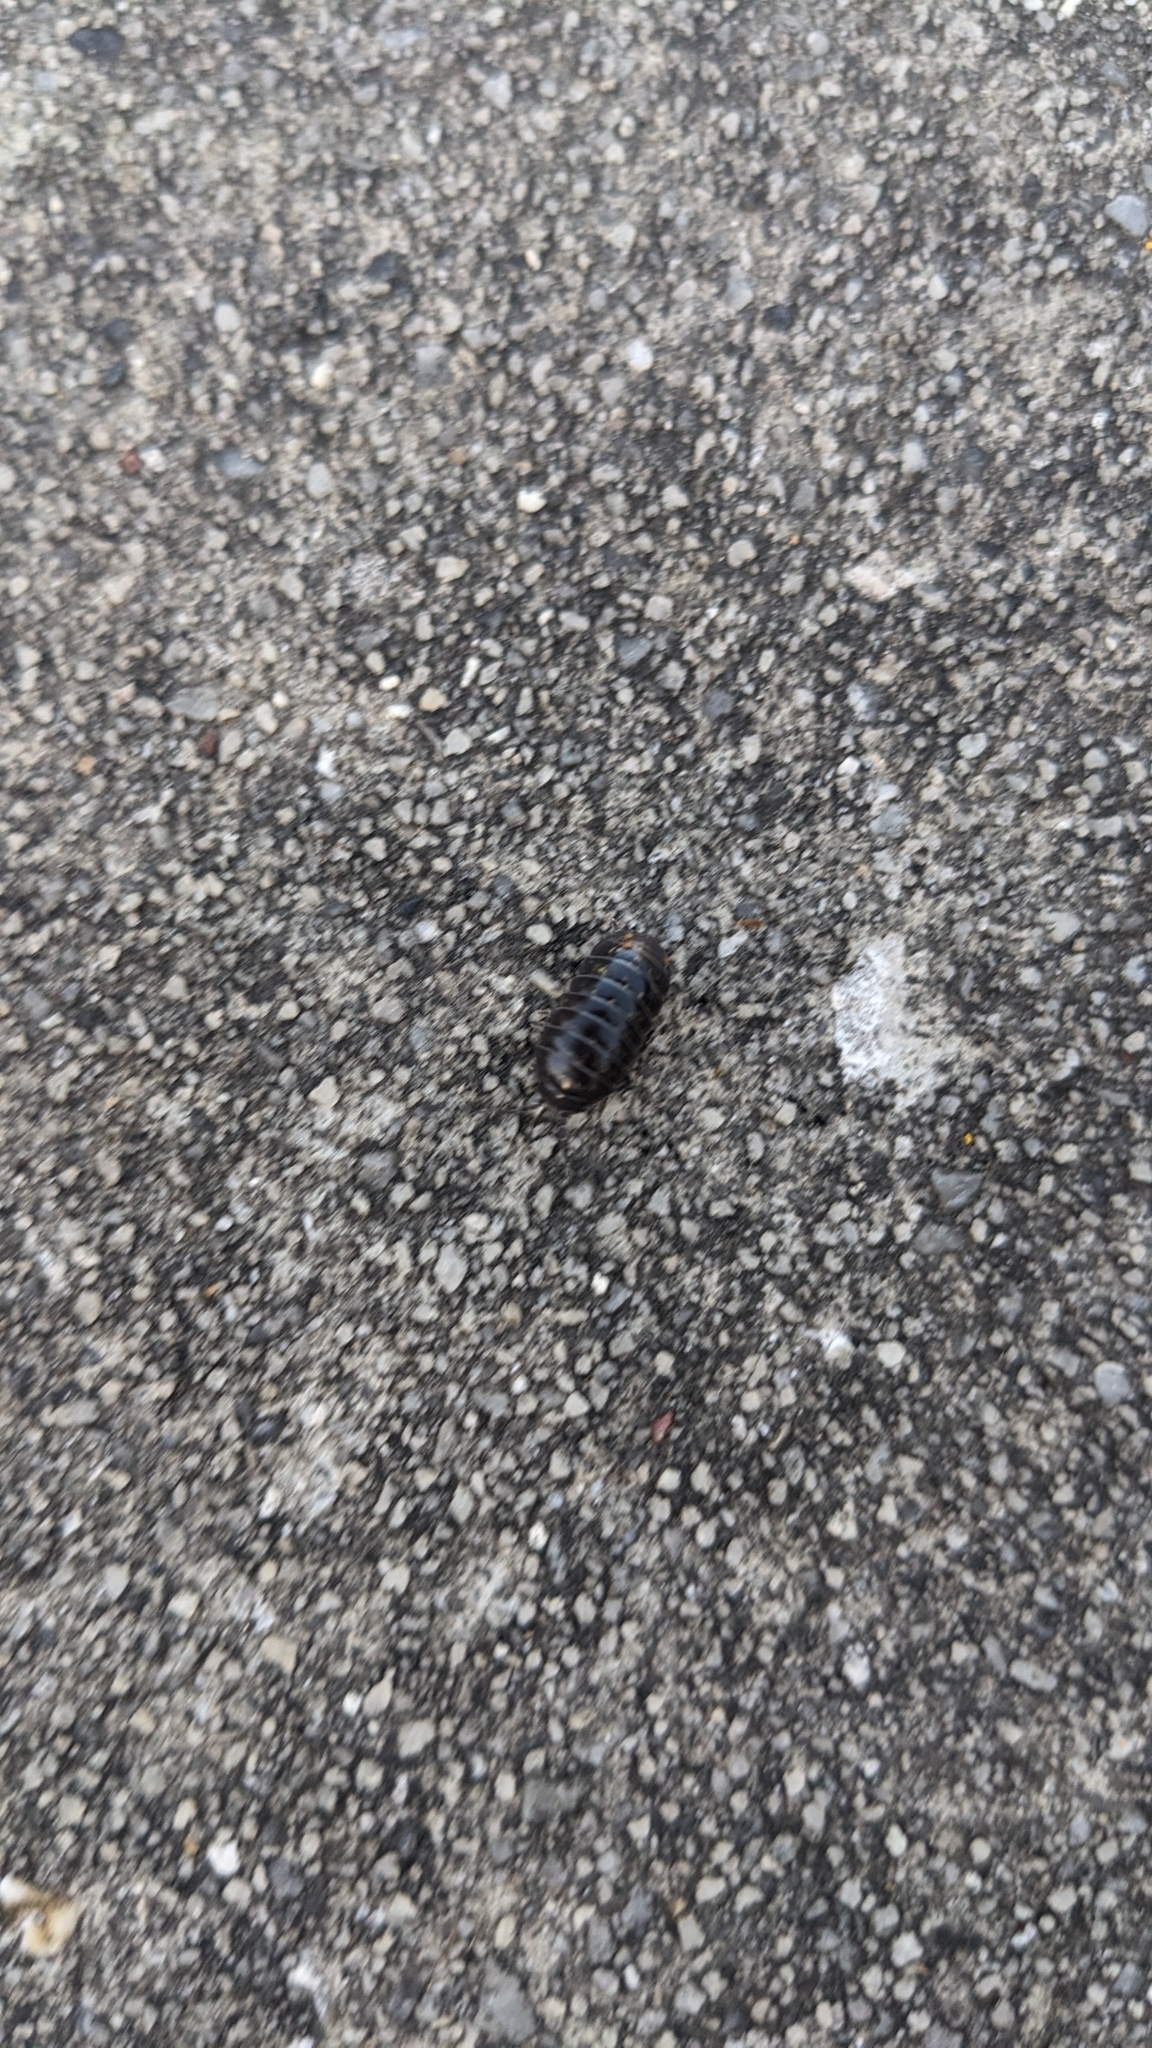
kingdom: Animalia
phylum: Arthropoda
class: Malacostraca
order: Isopoda
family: Armadillidiidae
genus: Armadillidium
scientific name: Armadillidium vulgare
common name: Common pill woodlouse
